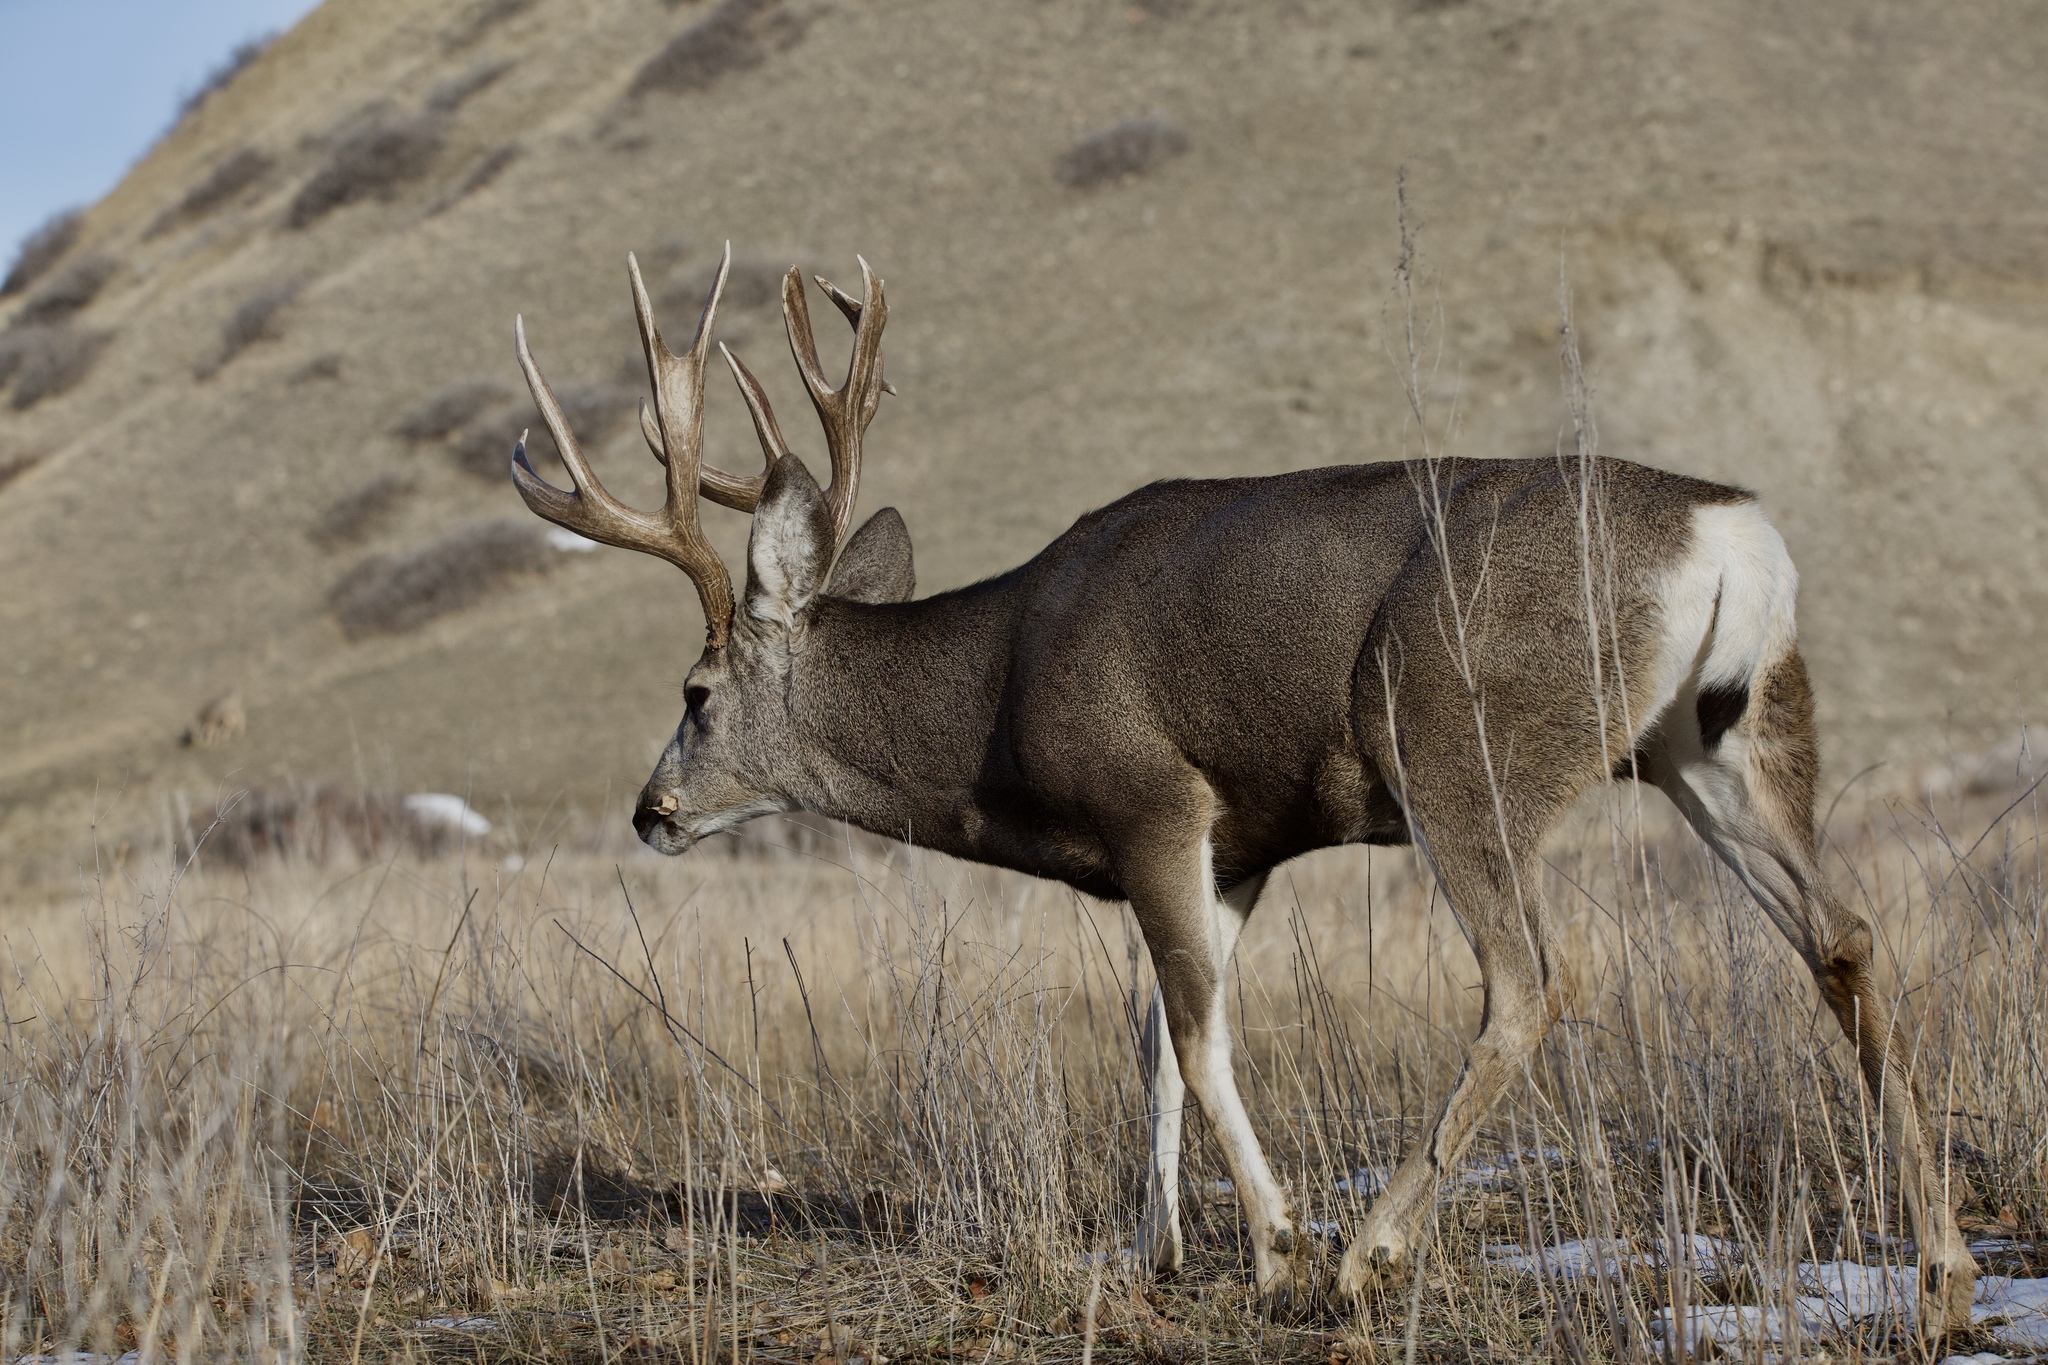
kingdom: Animalia
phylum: Chordata
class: Mammalia
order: Artiodactyla
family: Cervidae
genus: Odocoileus
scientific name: Odocoileus hemionus
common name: Mule deer
